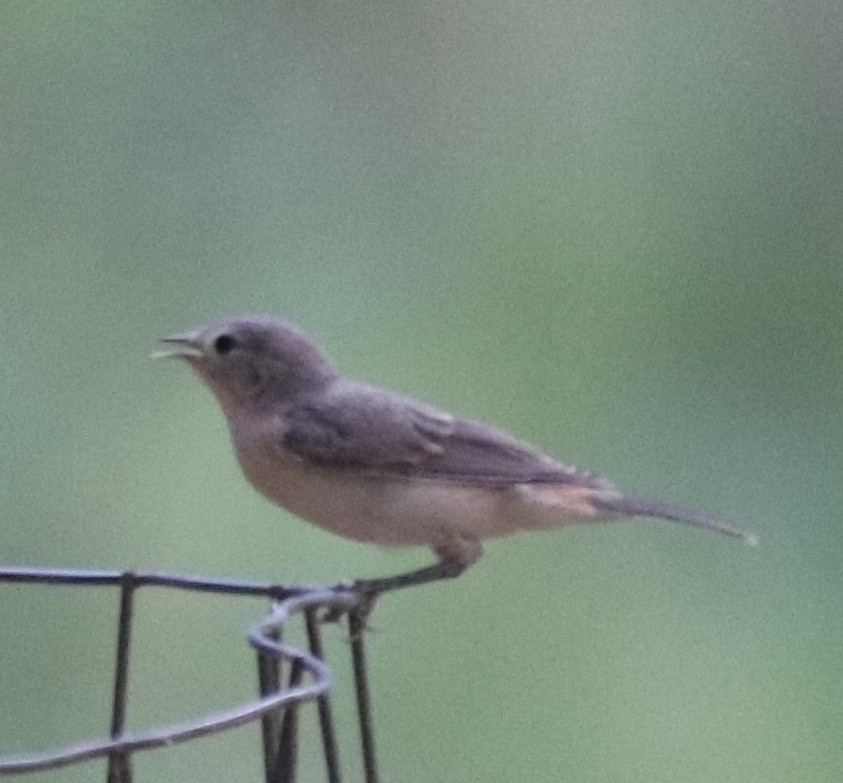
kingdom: Animalia
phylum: Chordata
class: Aves
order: Passeriformes
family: Parulidae
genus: Leiothlypis
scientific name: Leiothlypis luciae
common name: Lucy's warbler
